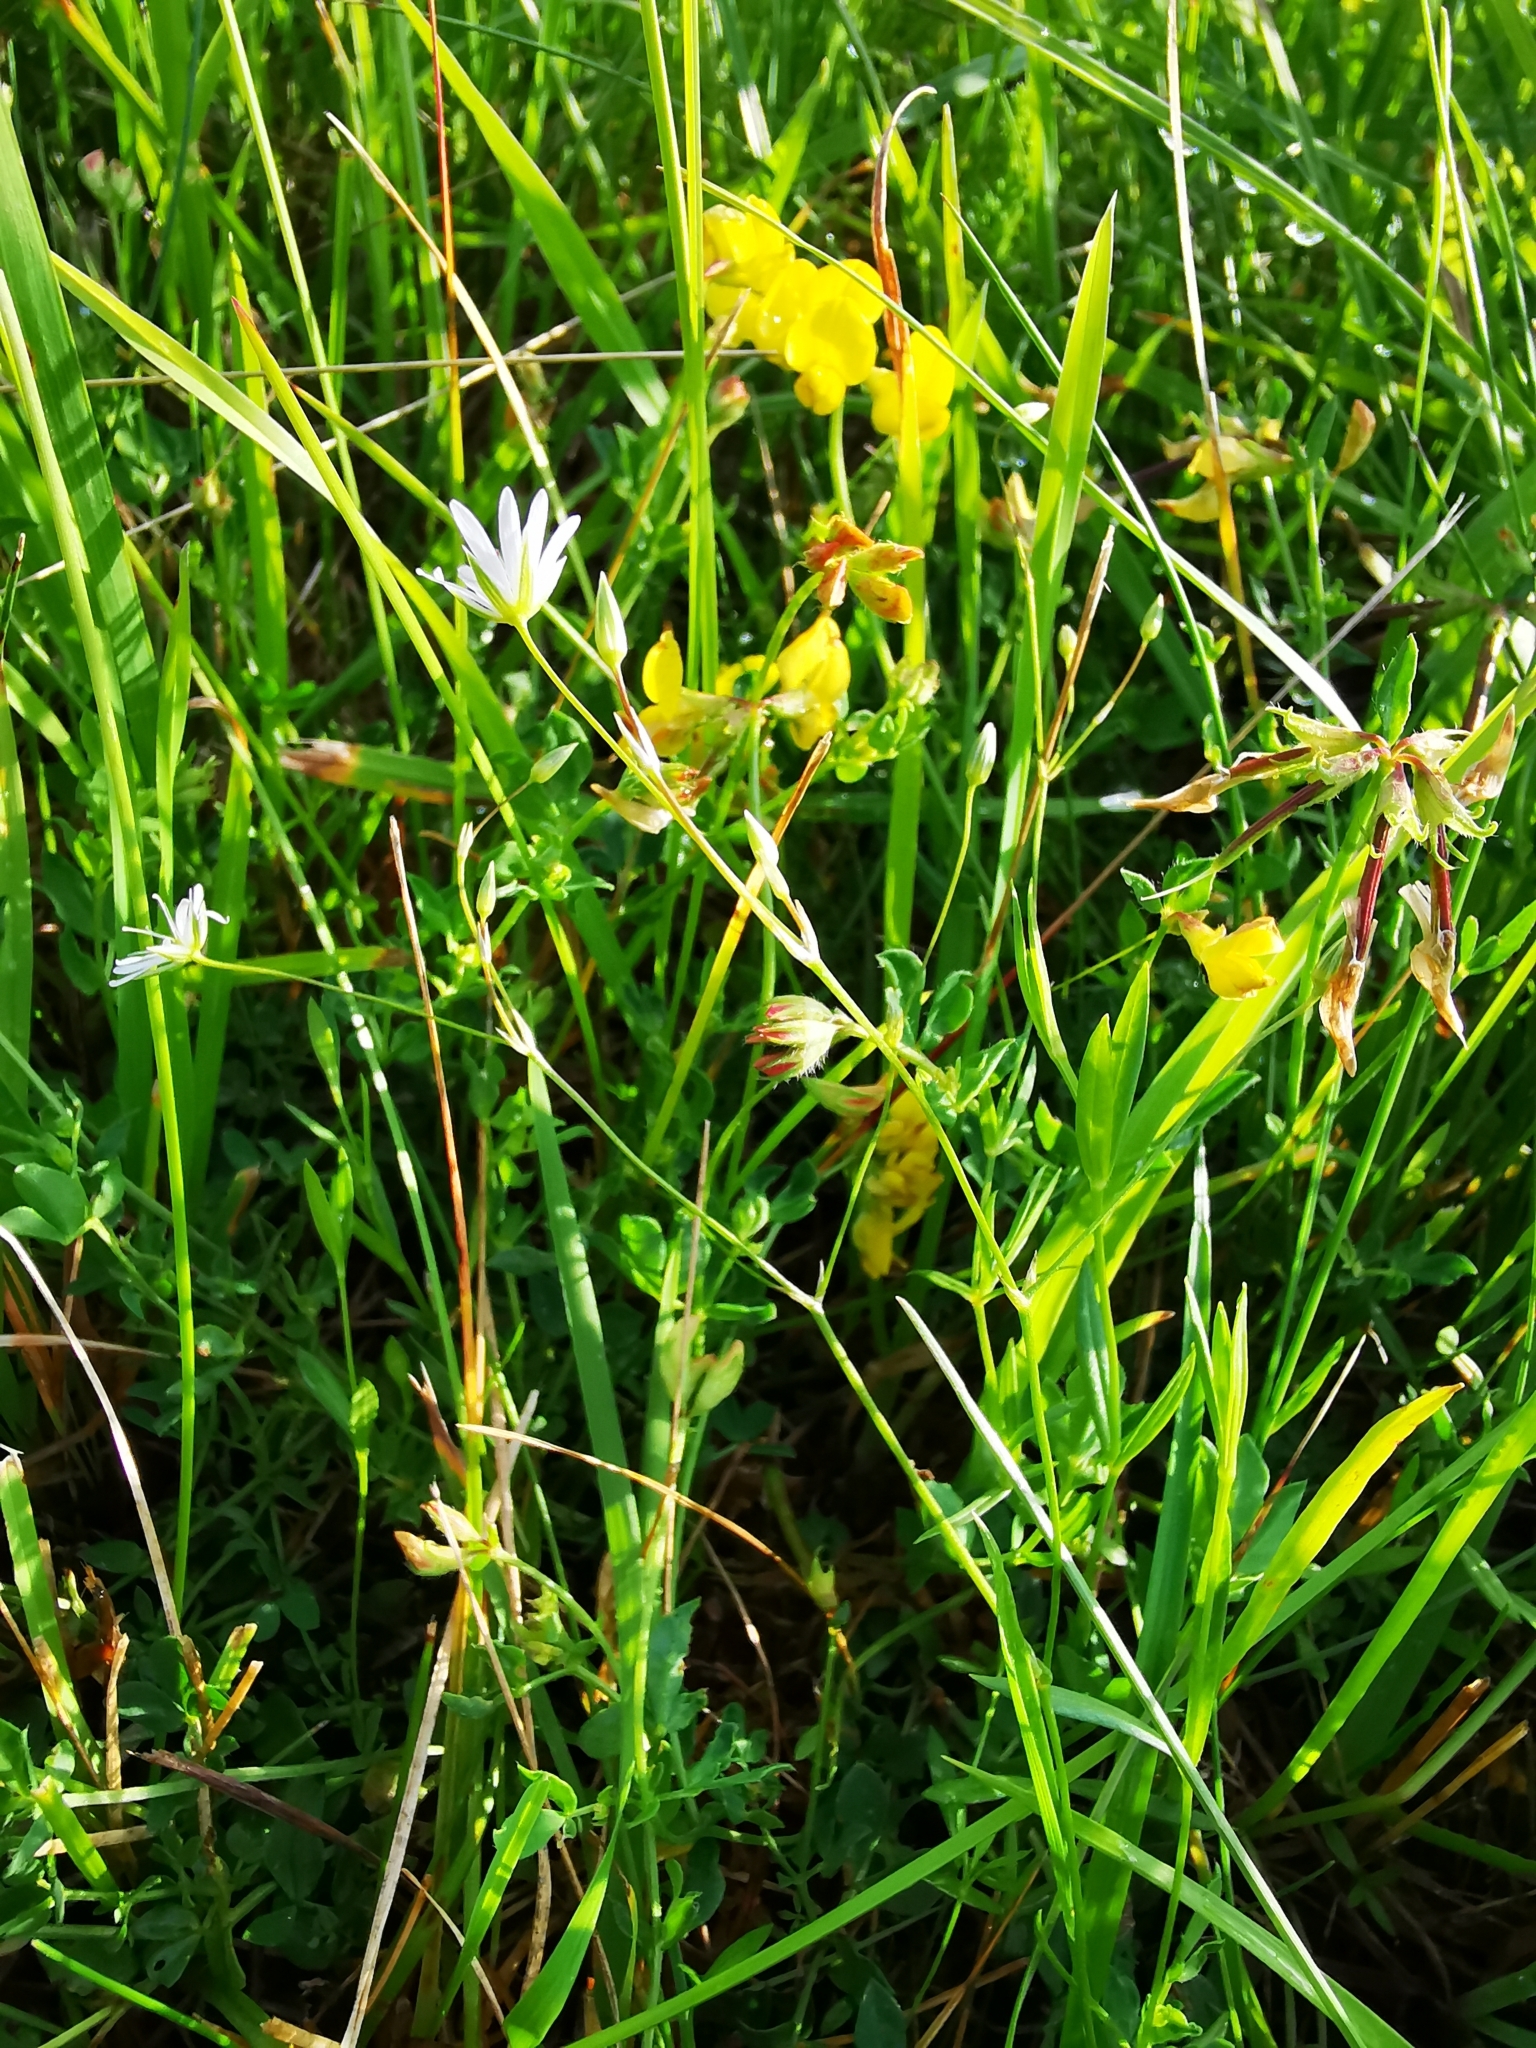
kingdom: Plantae
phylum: Tracheophyta
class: Magnoliopsida
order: Caryophyllales
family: Caryophyllaceae
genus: Stellaria
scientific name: Stellaria graminea
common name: Grass-like starwort
